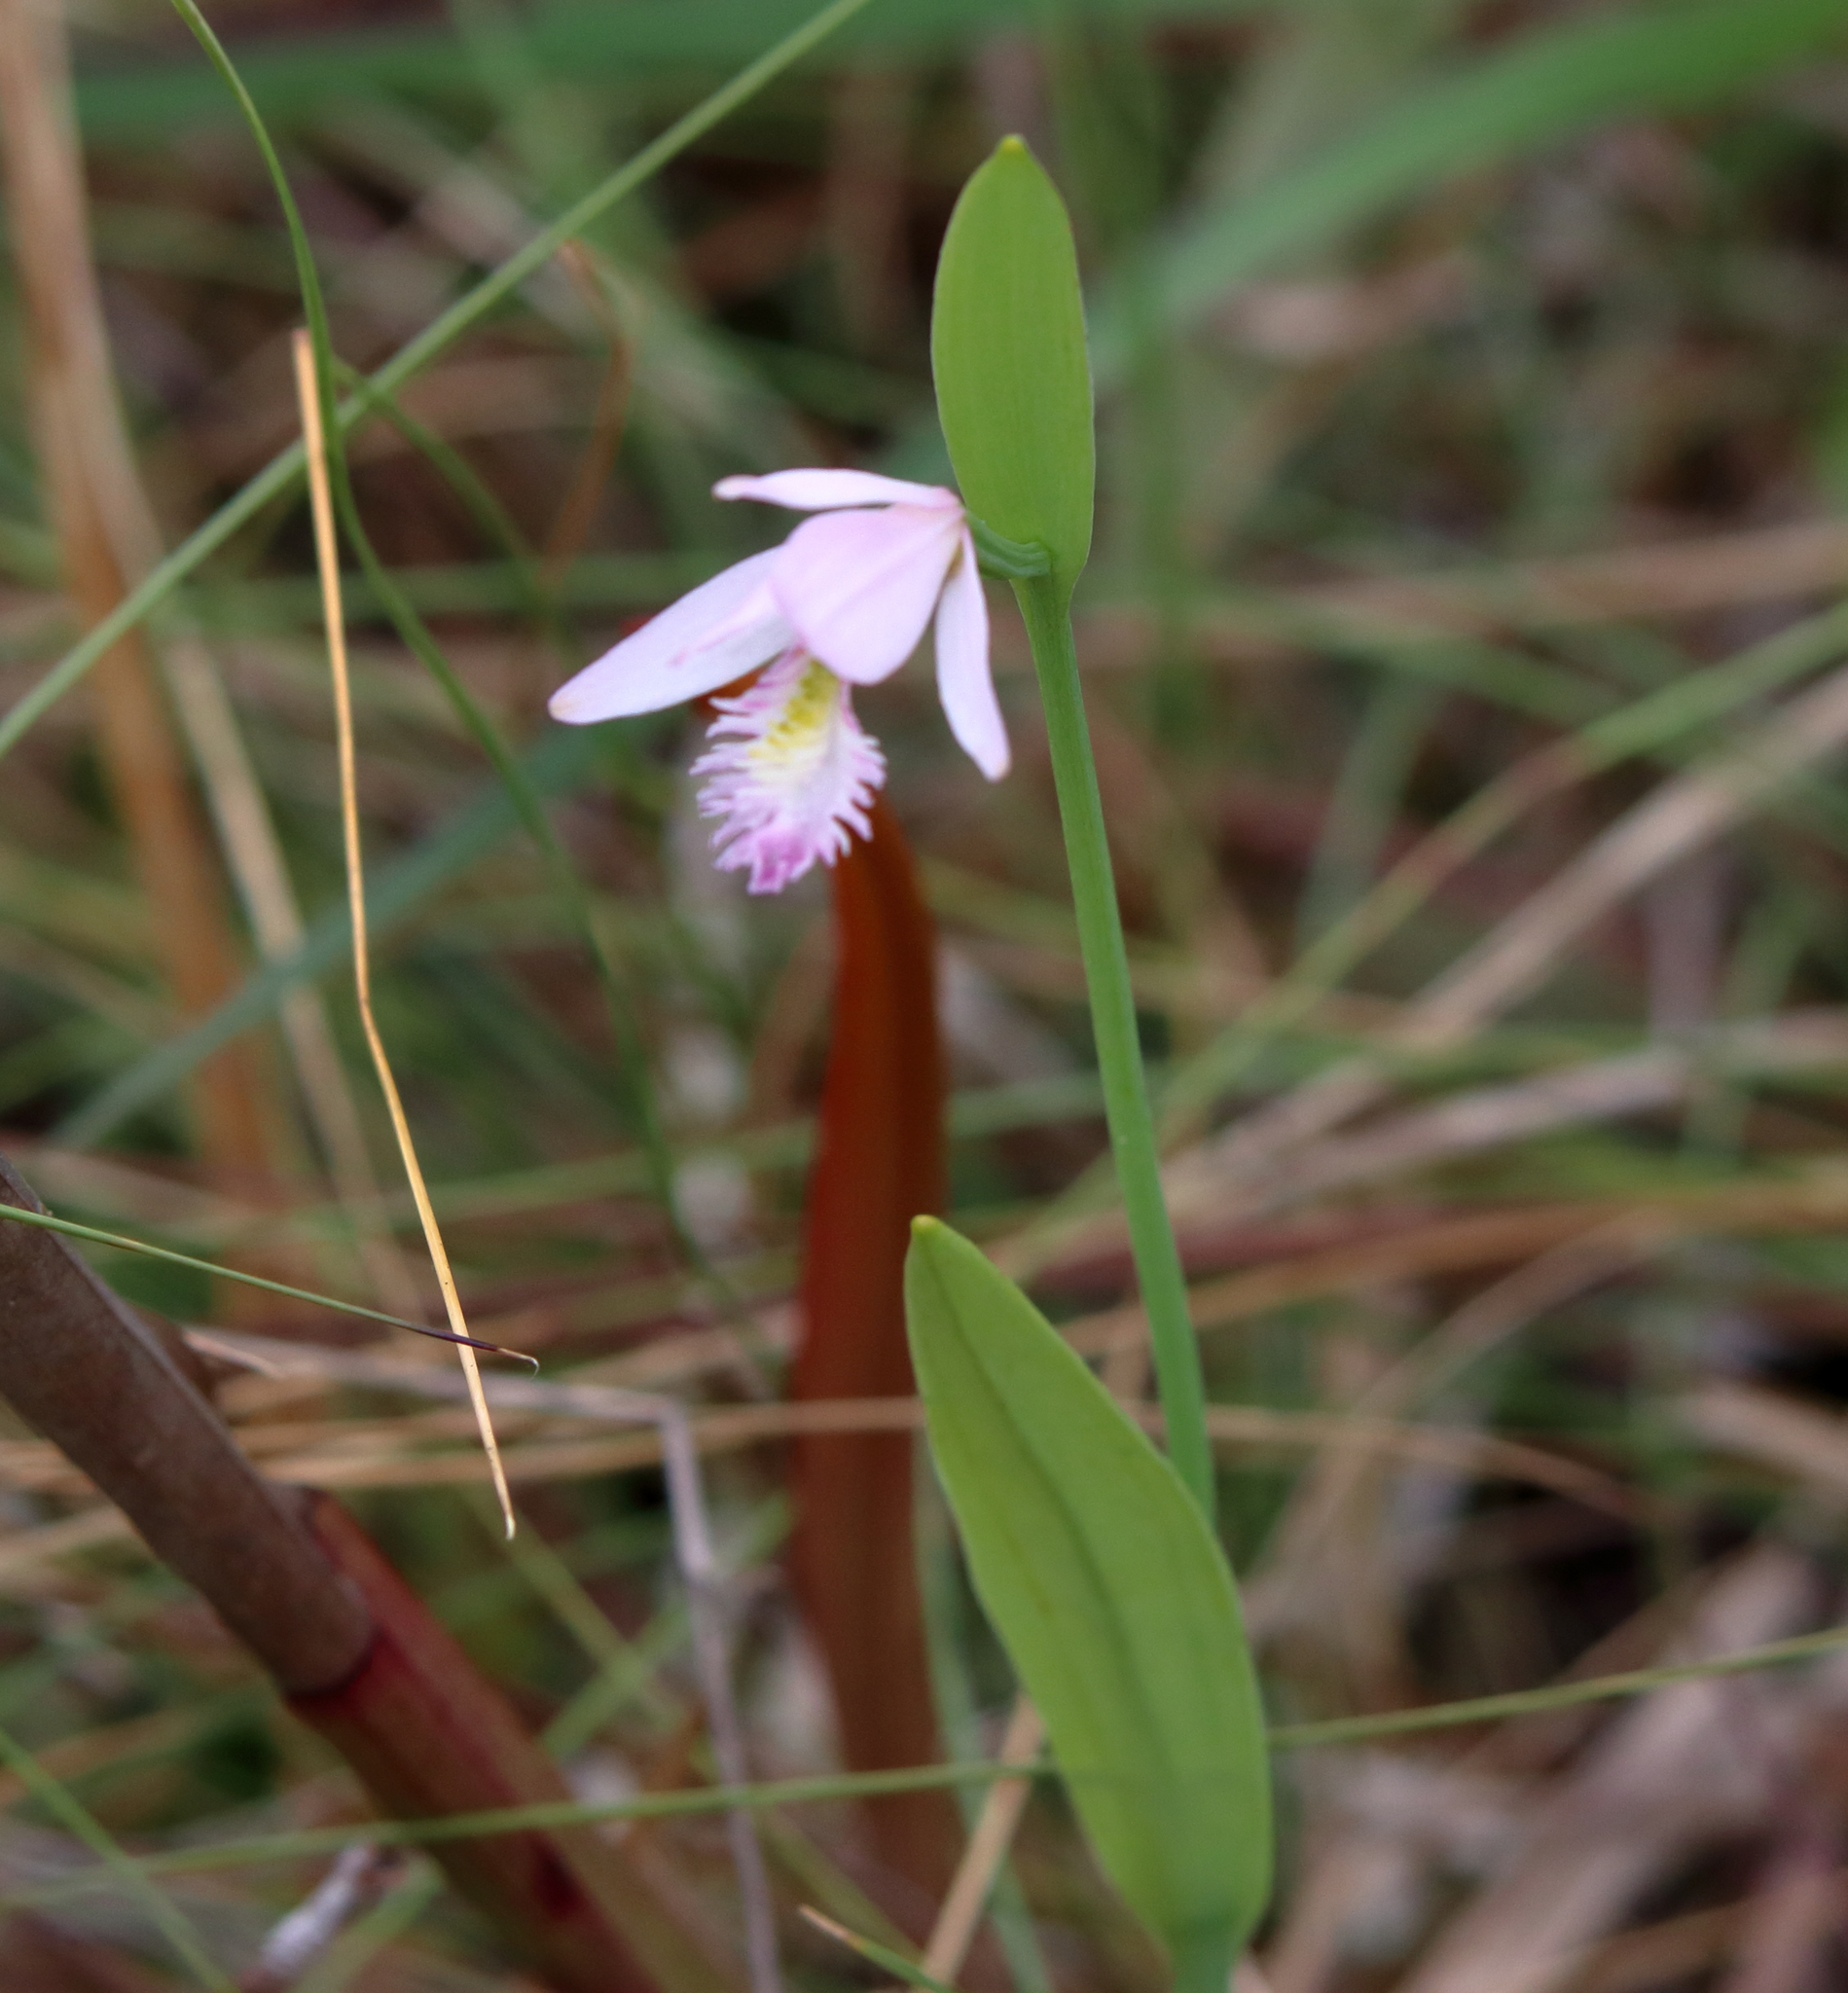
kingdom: Plantae
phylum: Tracheophyta
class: Liliopsida
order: Asparagales
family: Orchidaceae
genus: Pogonia
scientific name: Pogonia ophioglossoides
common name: Rose pogonia
